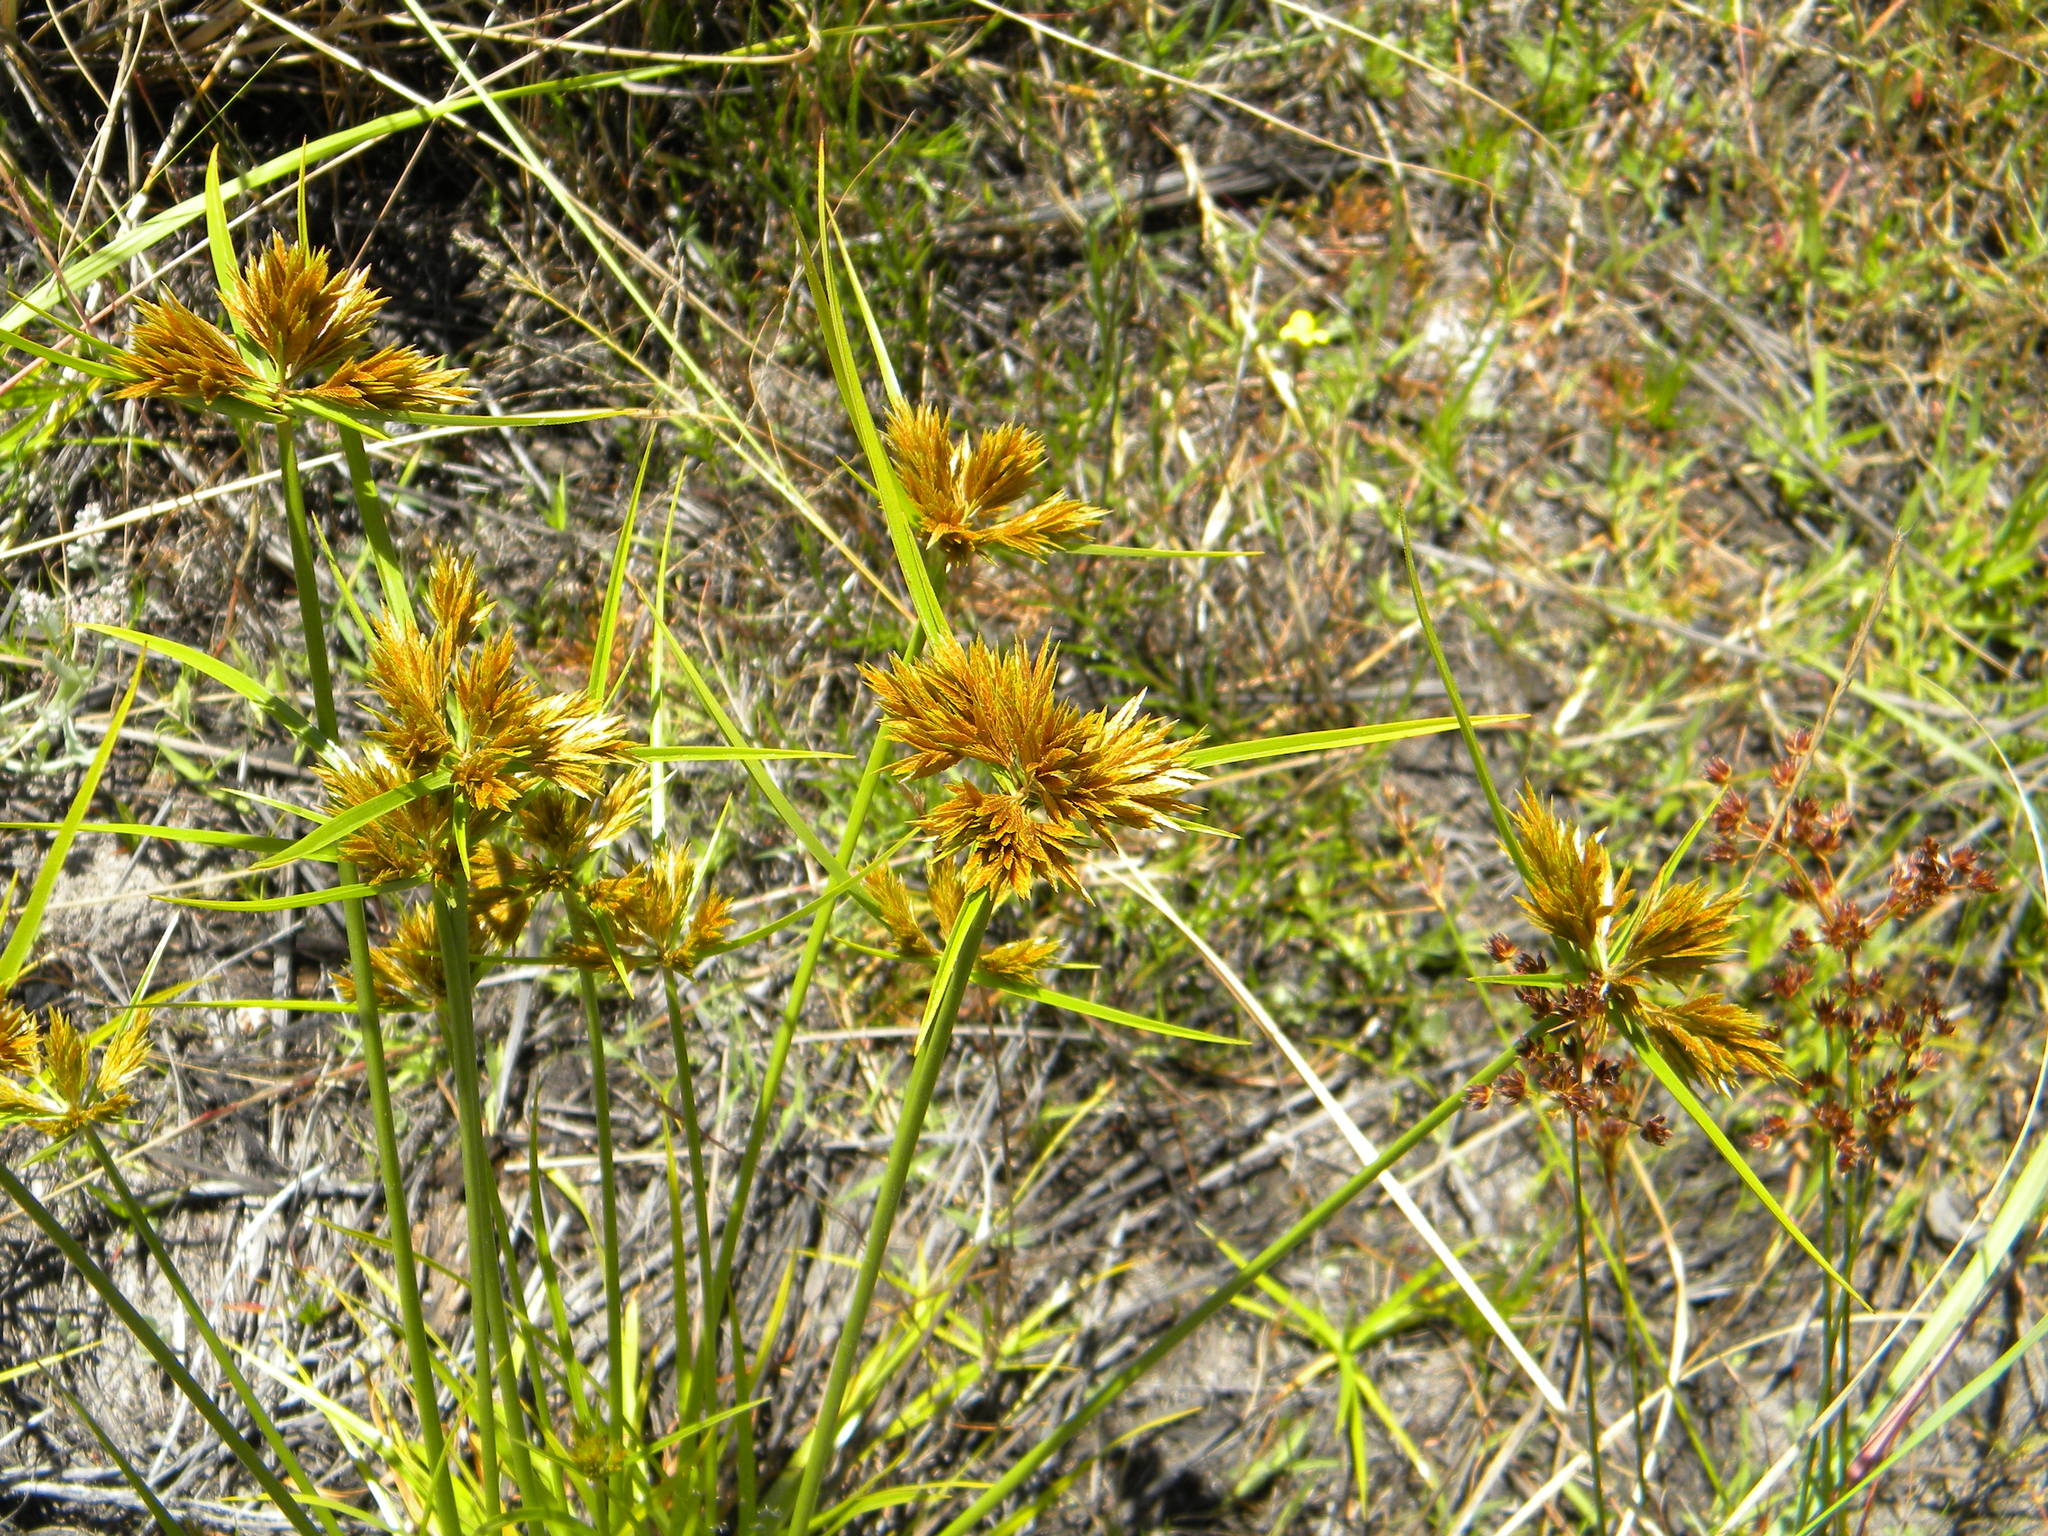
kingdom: Plantae
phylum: Tracheophyta
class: Liliopsida
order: Poales
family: Cyperaceae
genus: Cyperus
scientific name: Cyperus polystachyos
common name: Bunchy flat sedge
